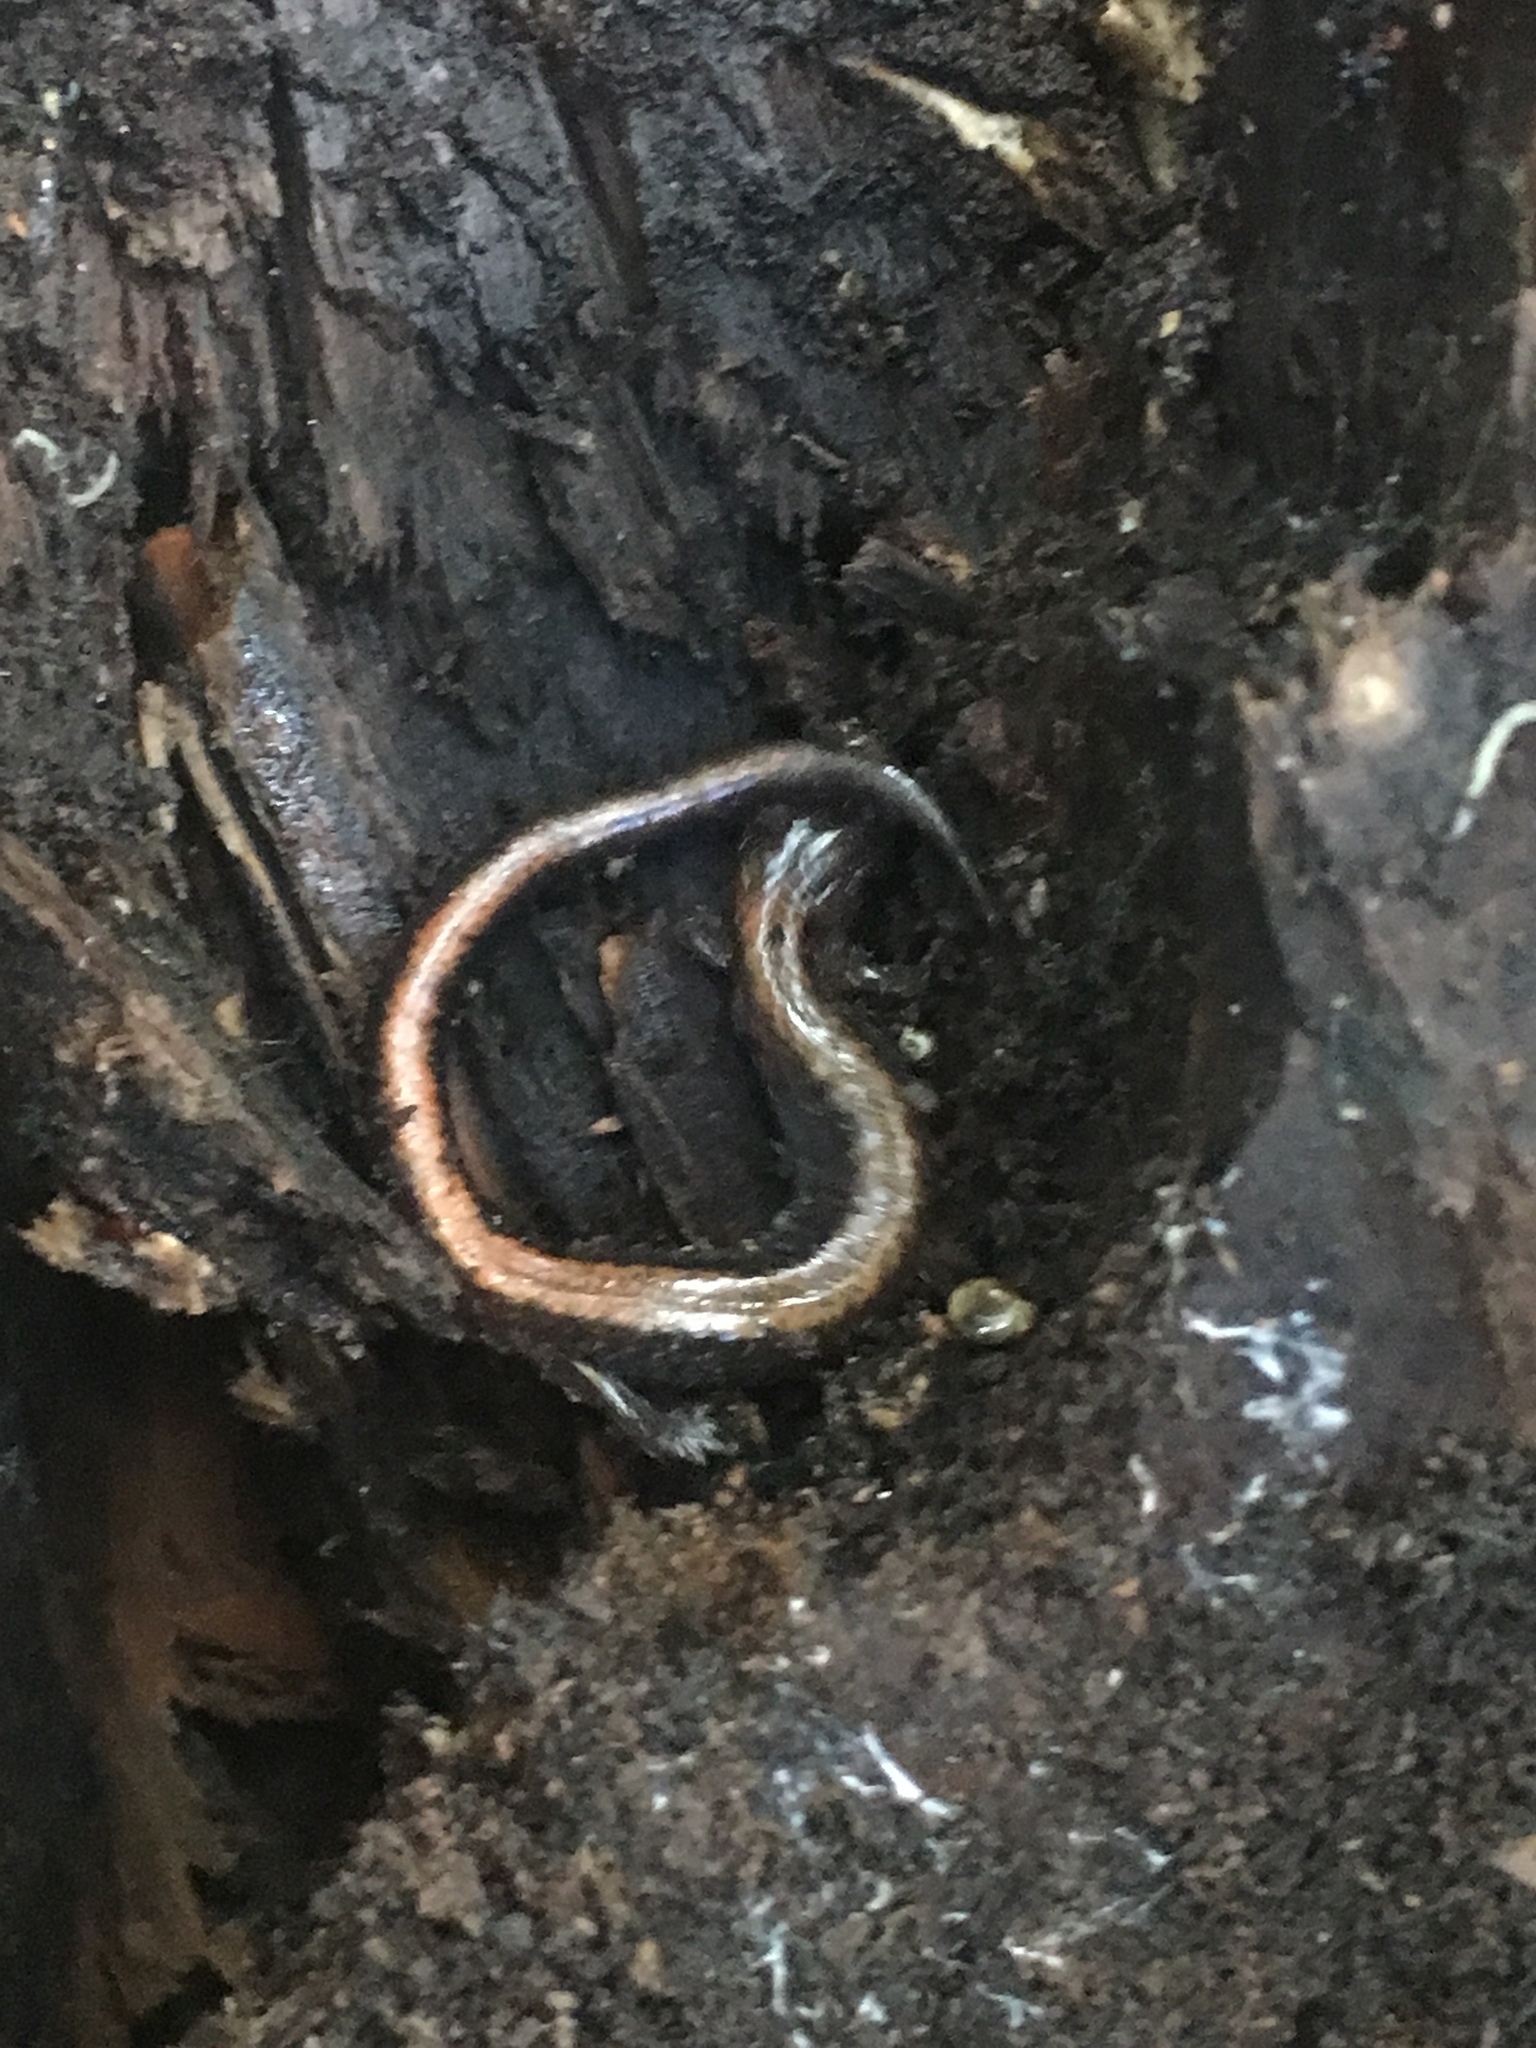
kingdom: Animalia
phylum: Chordata
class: Amphibia
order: Caudata
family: Plethodontidae
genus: Plethodon
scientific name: Plethodon cinereus
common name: Redback salamander
